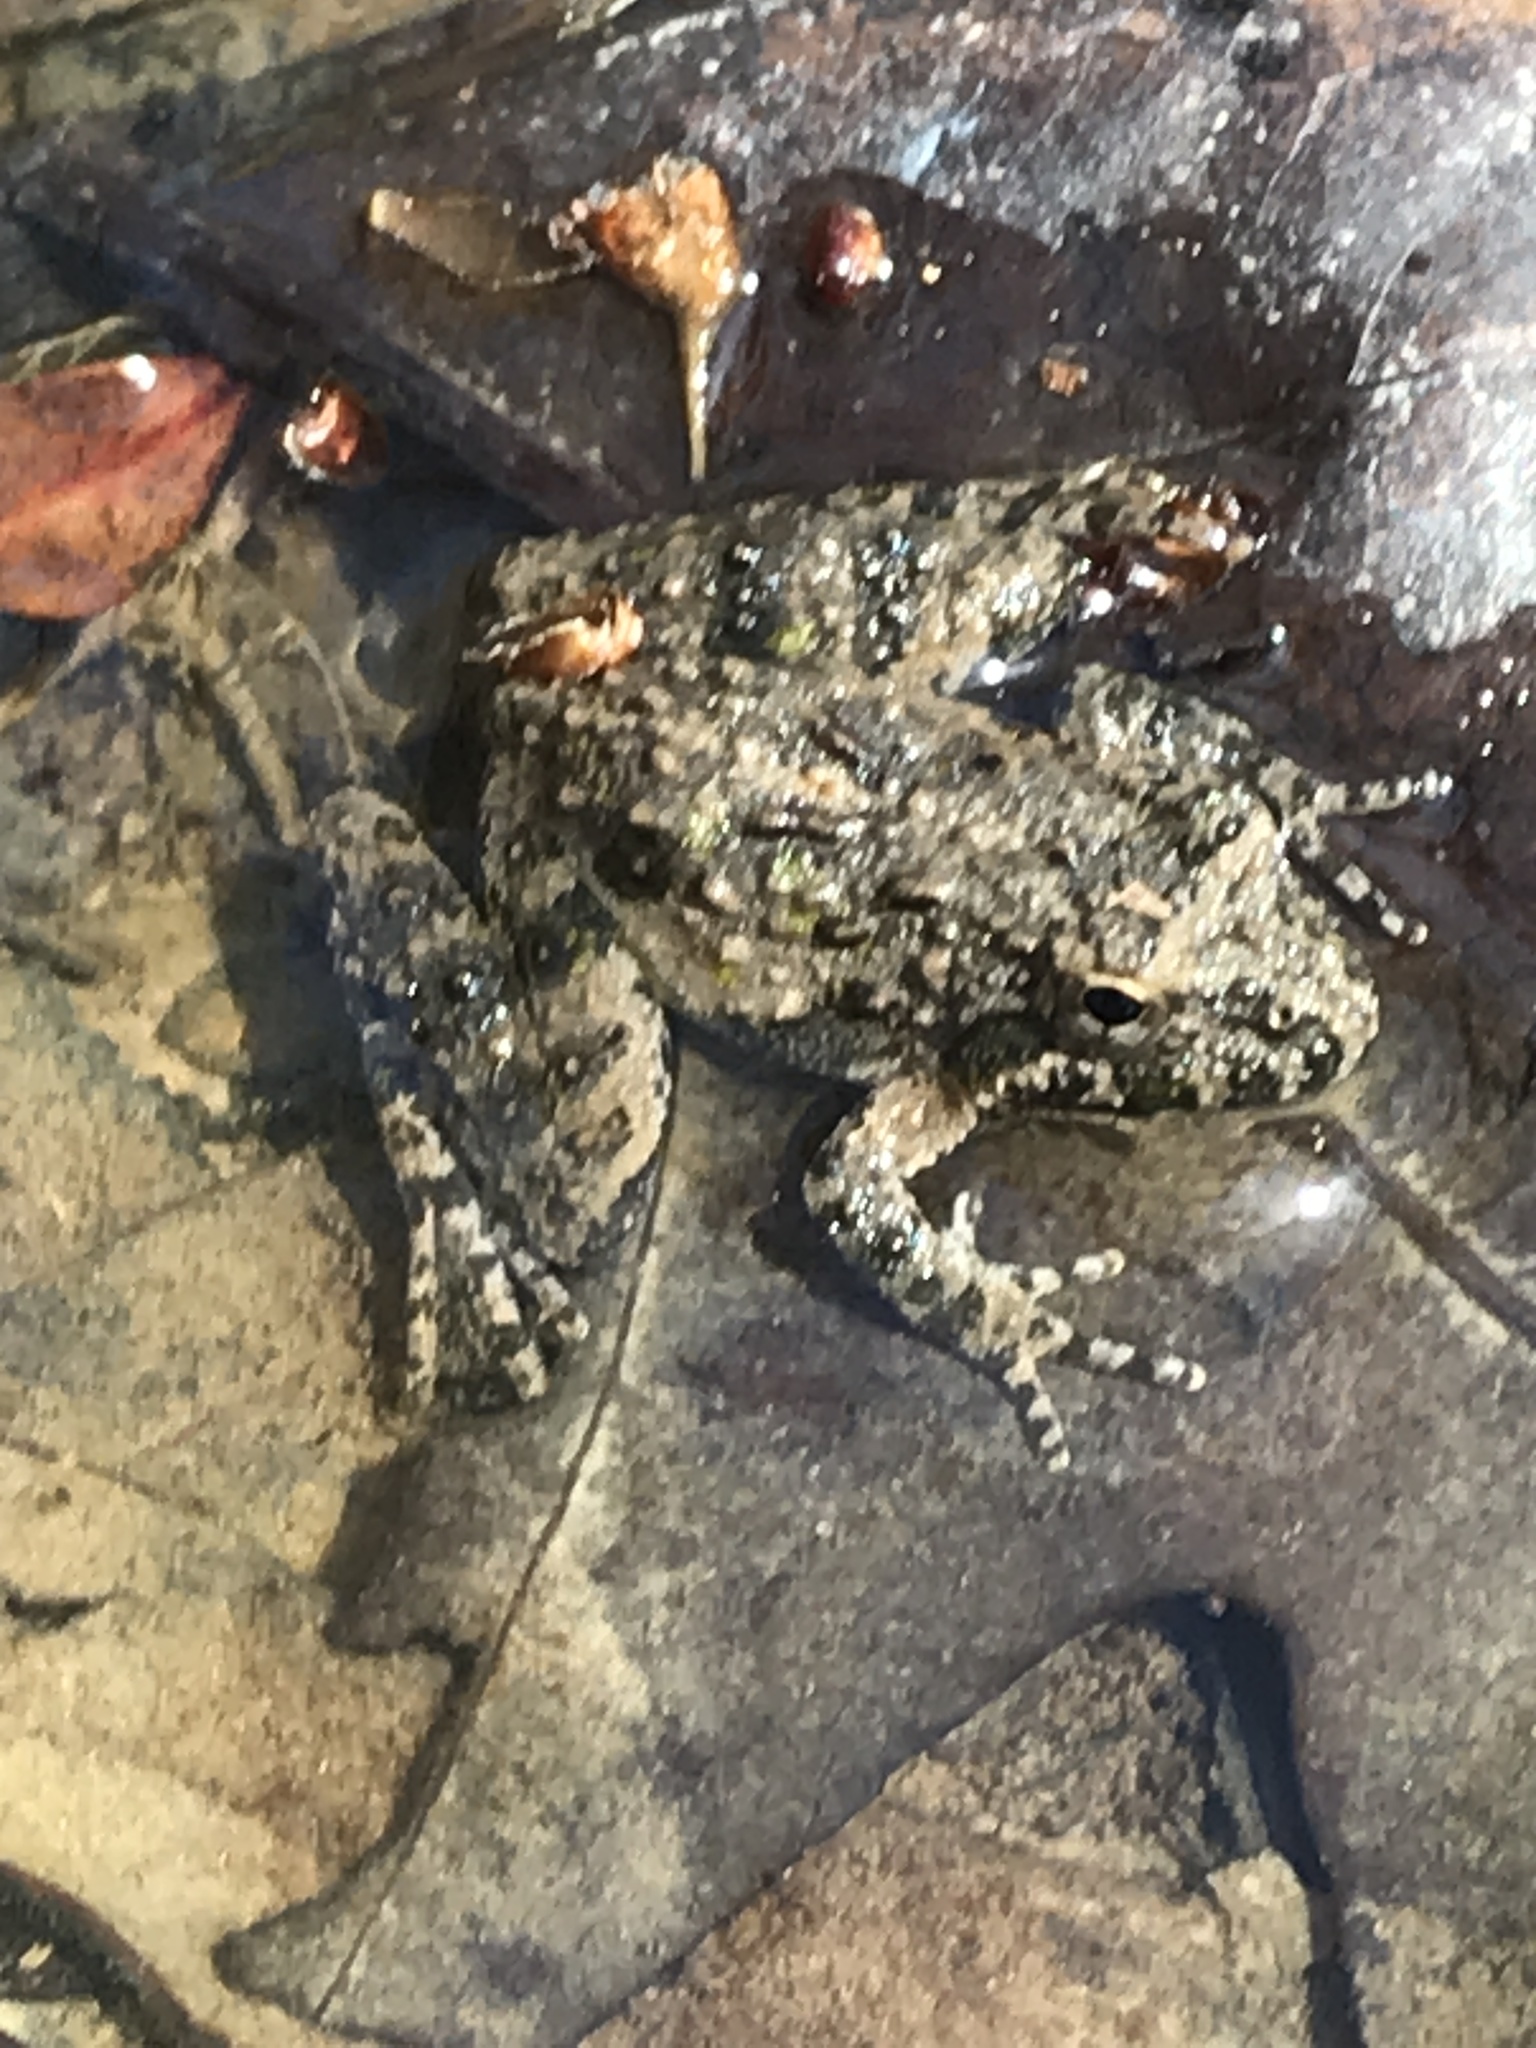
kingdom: Animalia
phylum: Chordata
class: Amphibia
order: Anura
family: Hylidae
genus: Acris
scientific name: Acris blanchardi
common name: Blanchard's cricket frog
